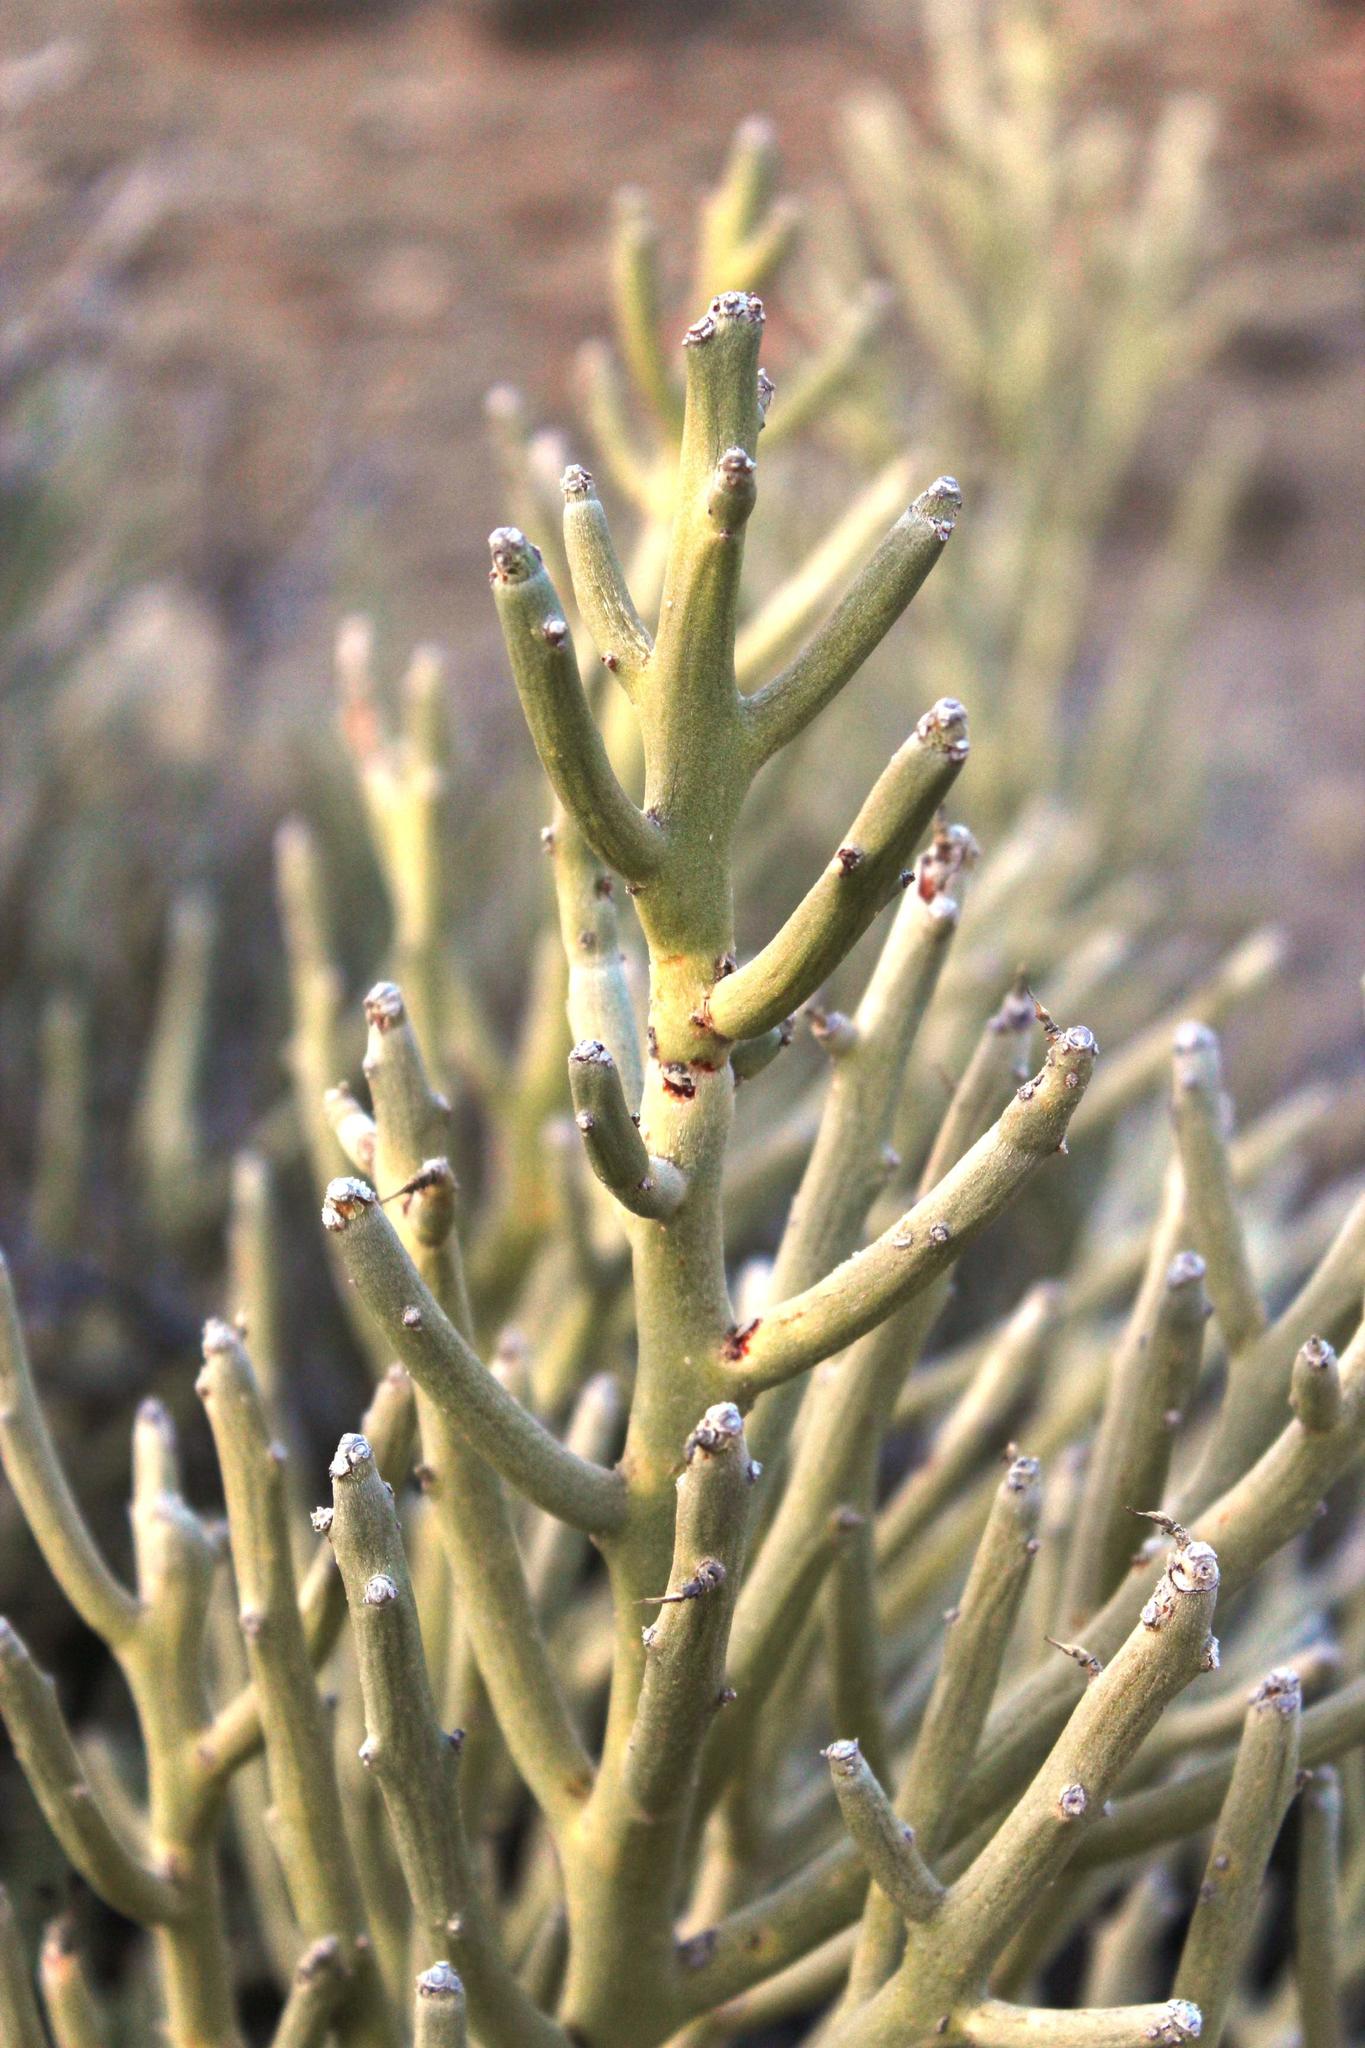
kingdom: Plantae
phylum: Tracheophyta
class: Magnoliopsida
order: Malpighiales
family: Euphorbiaceae
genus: Euphorbia
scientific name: Euphorbia gummifera
